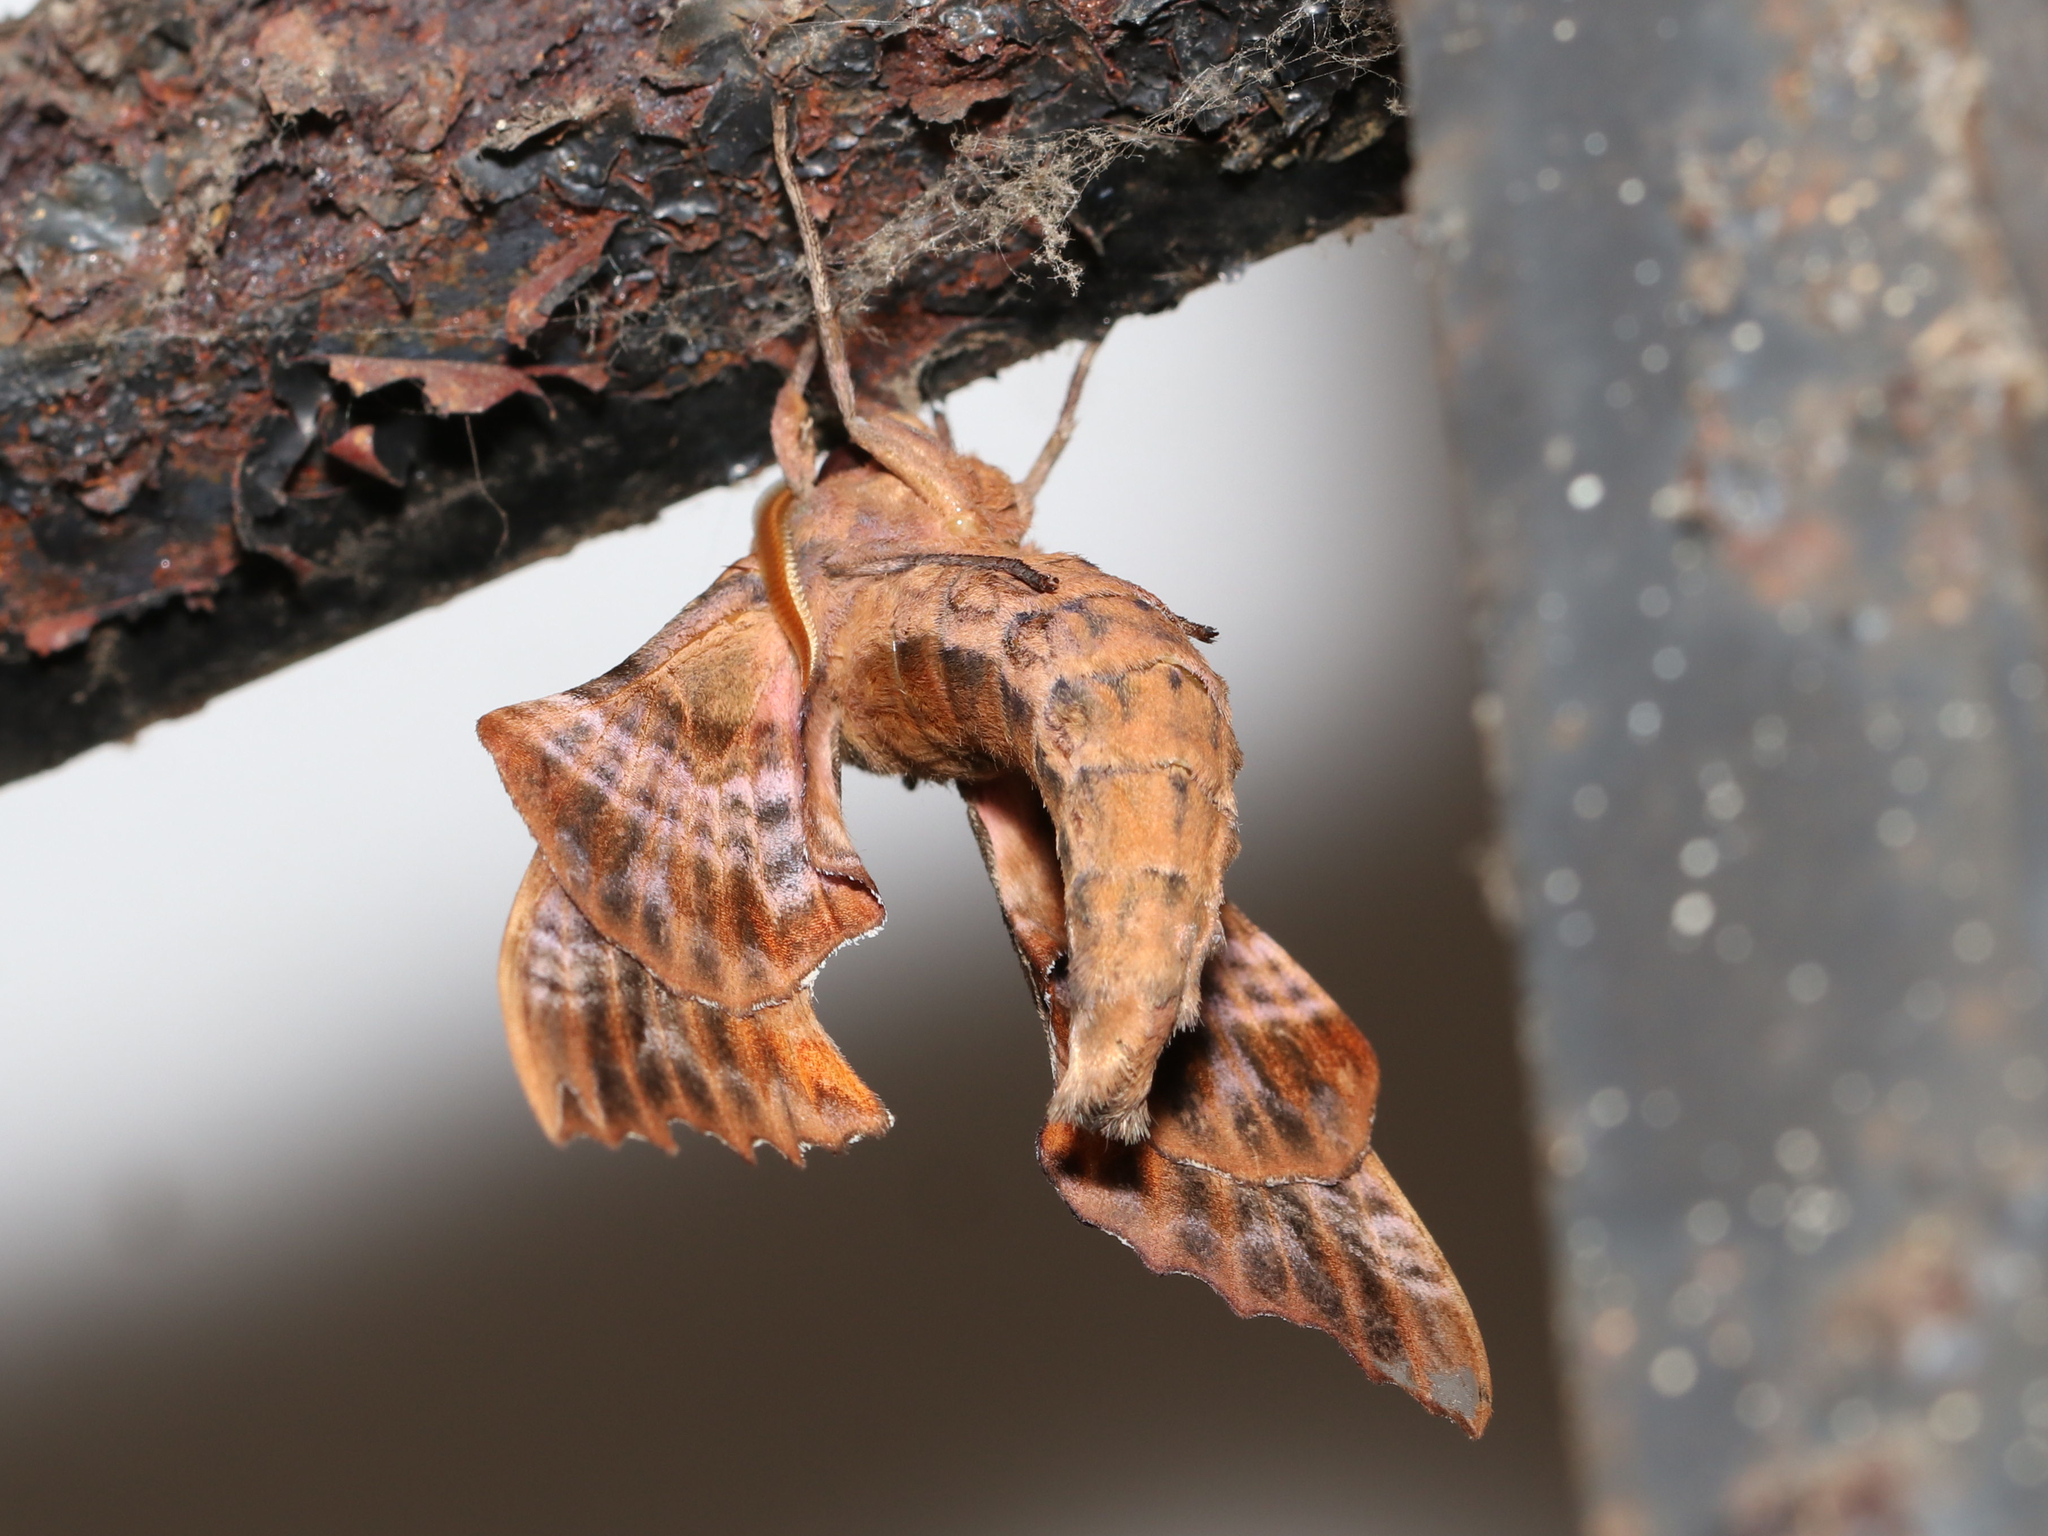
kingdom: Animalia
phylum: Arthropoda
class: Insecta
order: Lepidoptera
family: Sphingidae
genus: Paonias
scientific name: Paonias excaecata
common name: Blind-eyed sphinx
